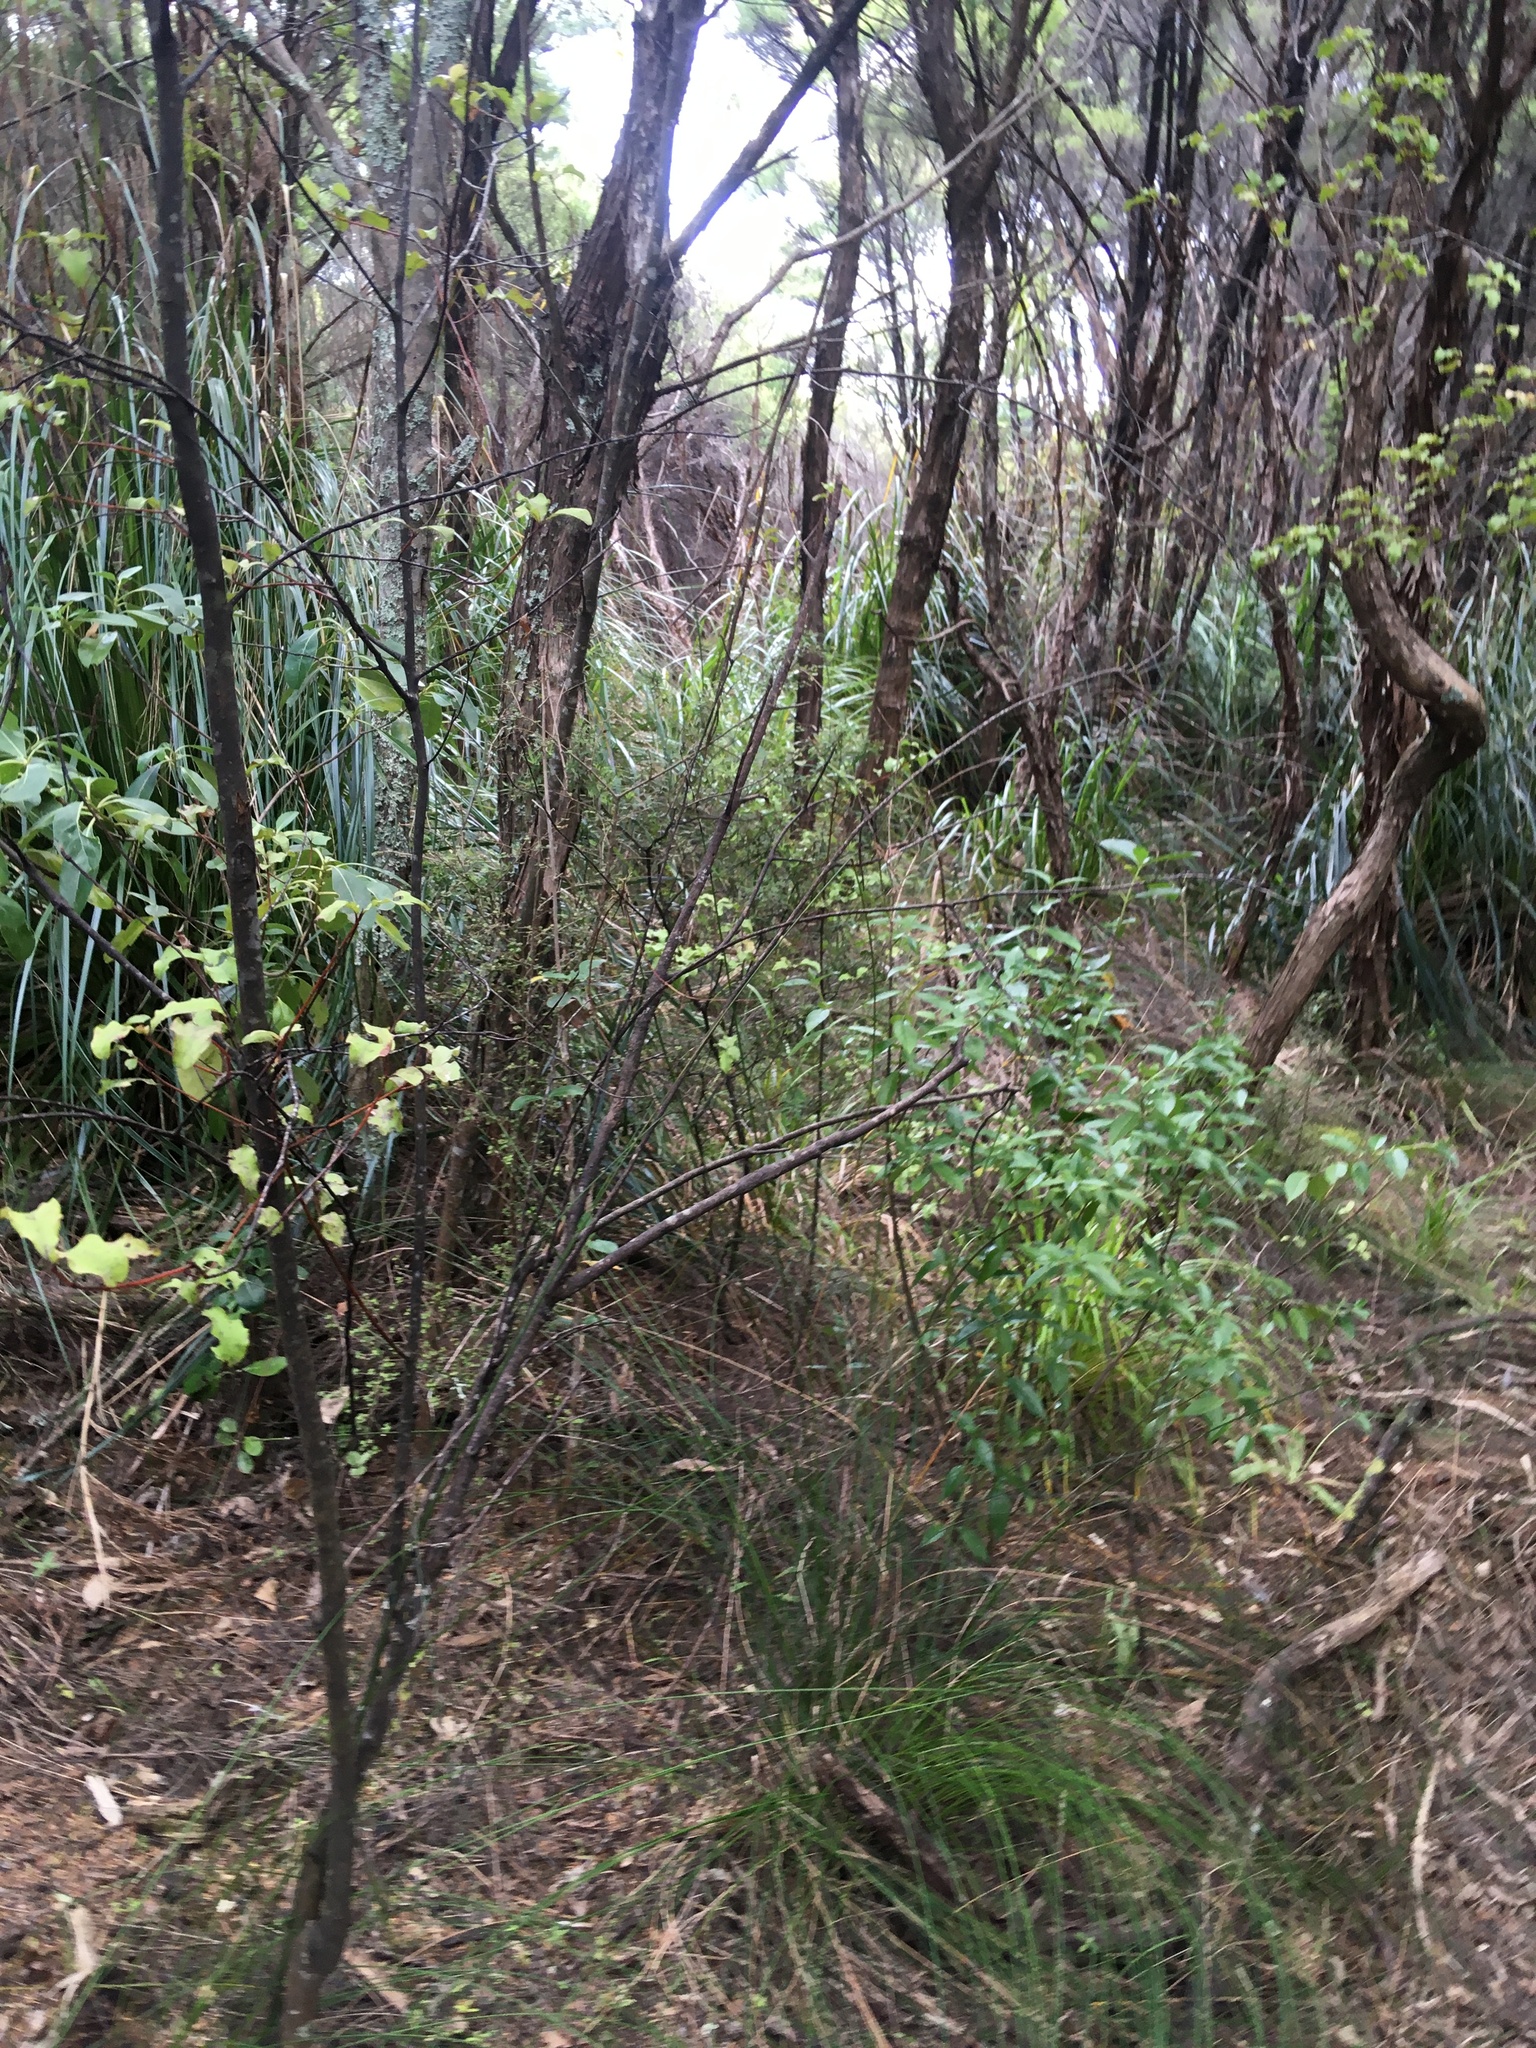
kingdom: Plantae
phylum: Tracheophyta
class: Magnoliopsida
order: Ericales
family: Primulaceae
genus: Myrsine
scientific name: Myrsine australis
